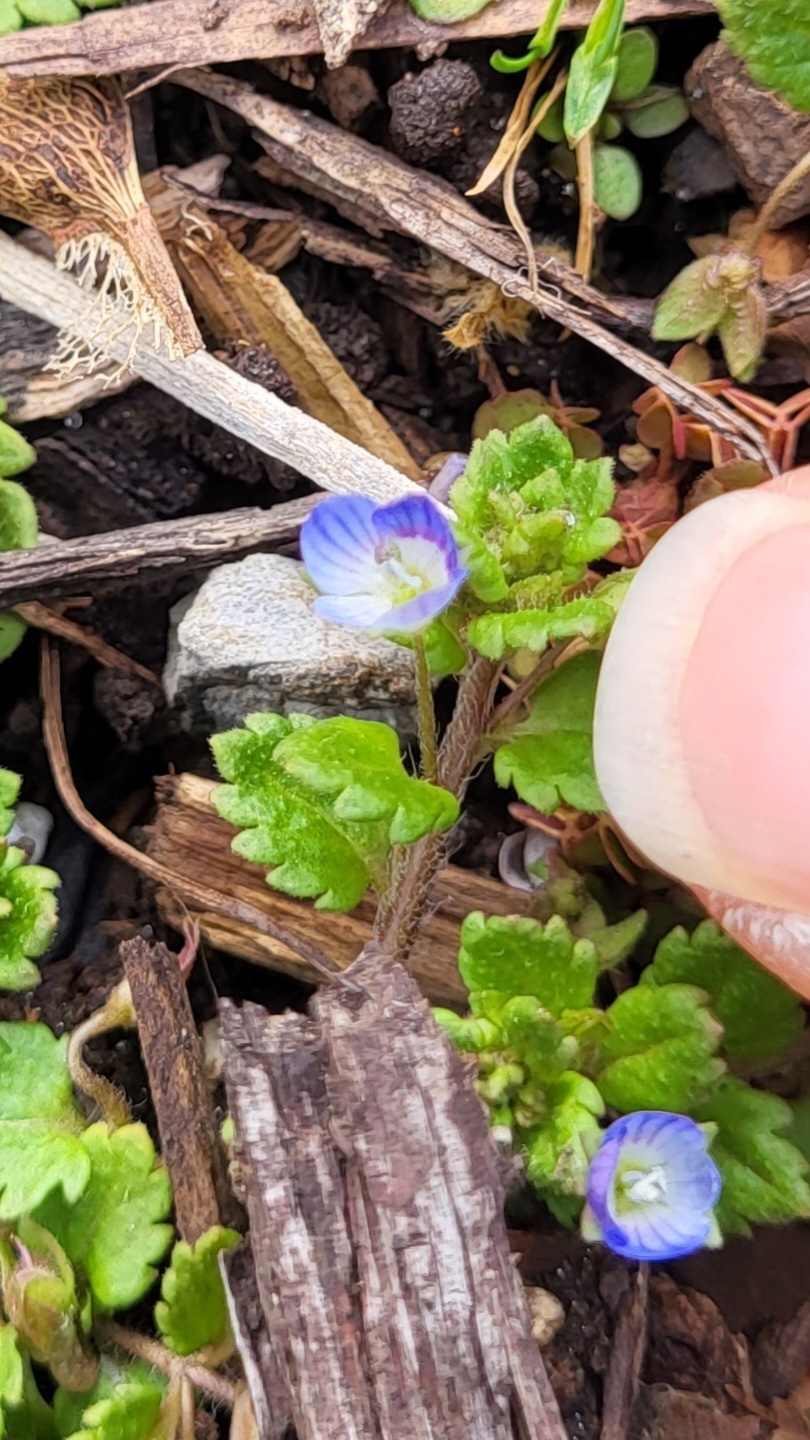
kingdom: Plantae
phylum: Tracheophyta
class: Magnoliopsida
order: Lamiales
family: Plantaginaceae
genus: Veronica
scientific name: Veronica persica
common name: Common field-speedwell
